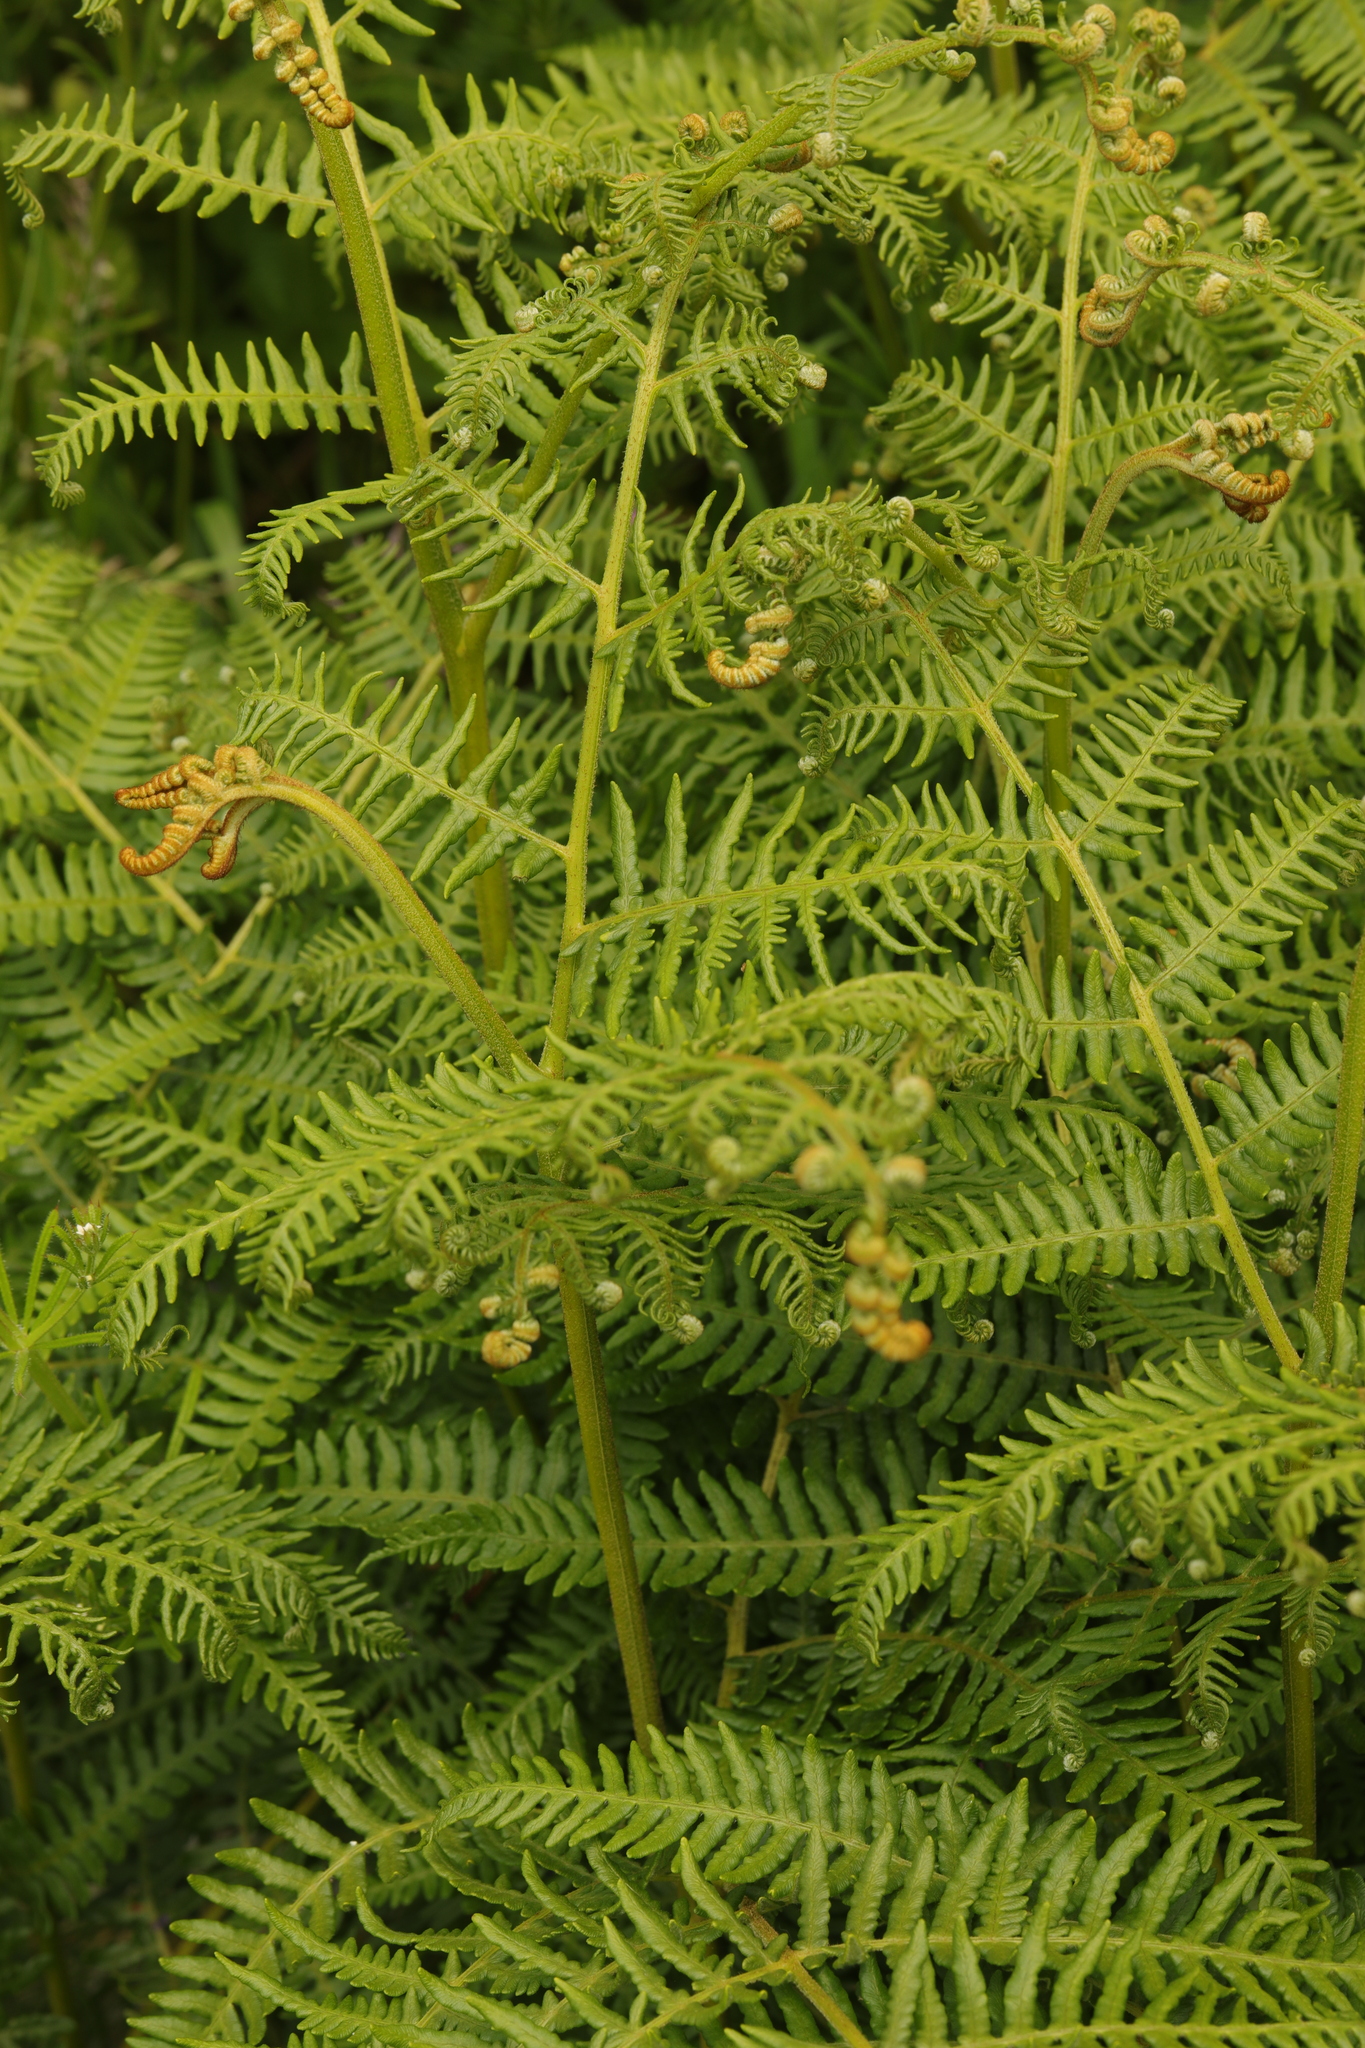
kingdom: Plantae
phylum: Tracheophyta
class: Polypodiopsida
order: Polypodiales
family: Dennstaedtiaceae
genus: Pteridium
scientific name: Pteridium aquilinum
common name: Bracken
